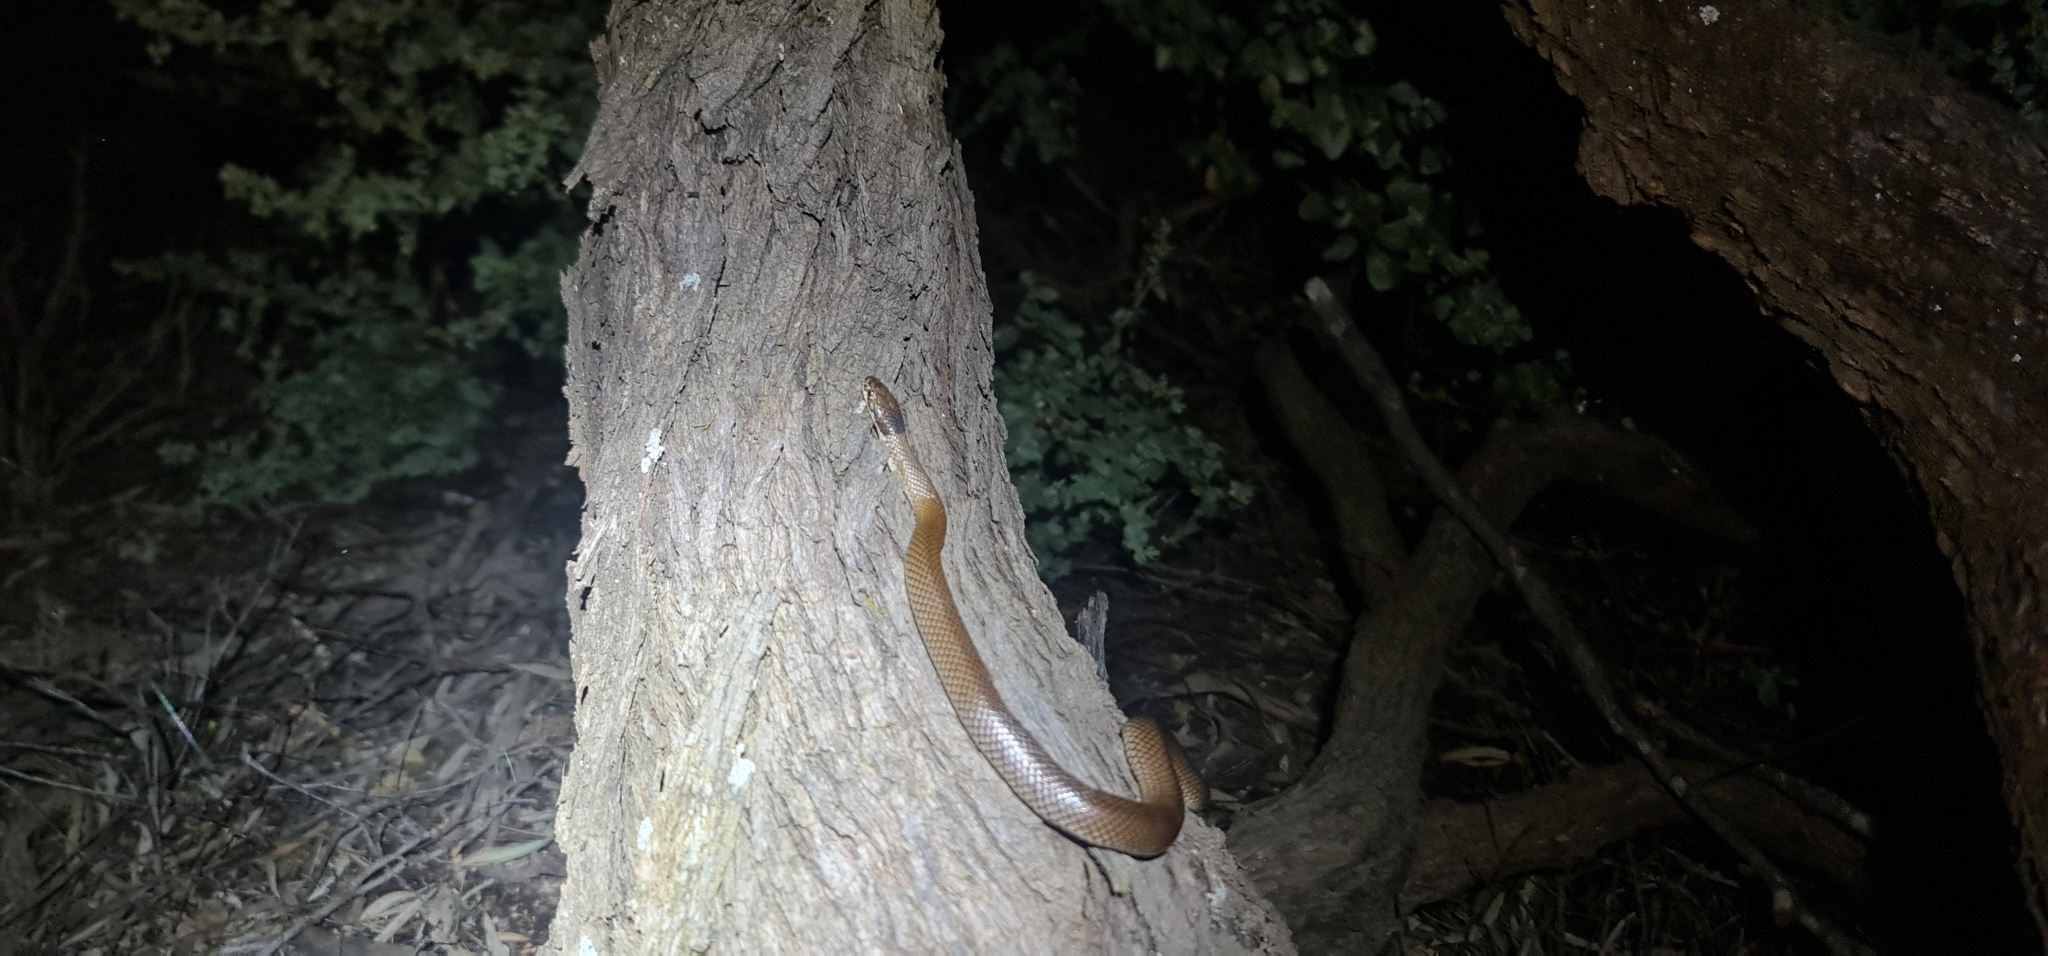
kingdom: Animalia
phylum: Chordata
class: Squamata
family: Elapidae
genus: Suta
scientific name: Suta suta
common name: Curl snake
